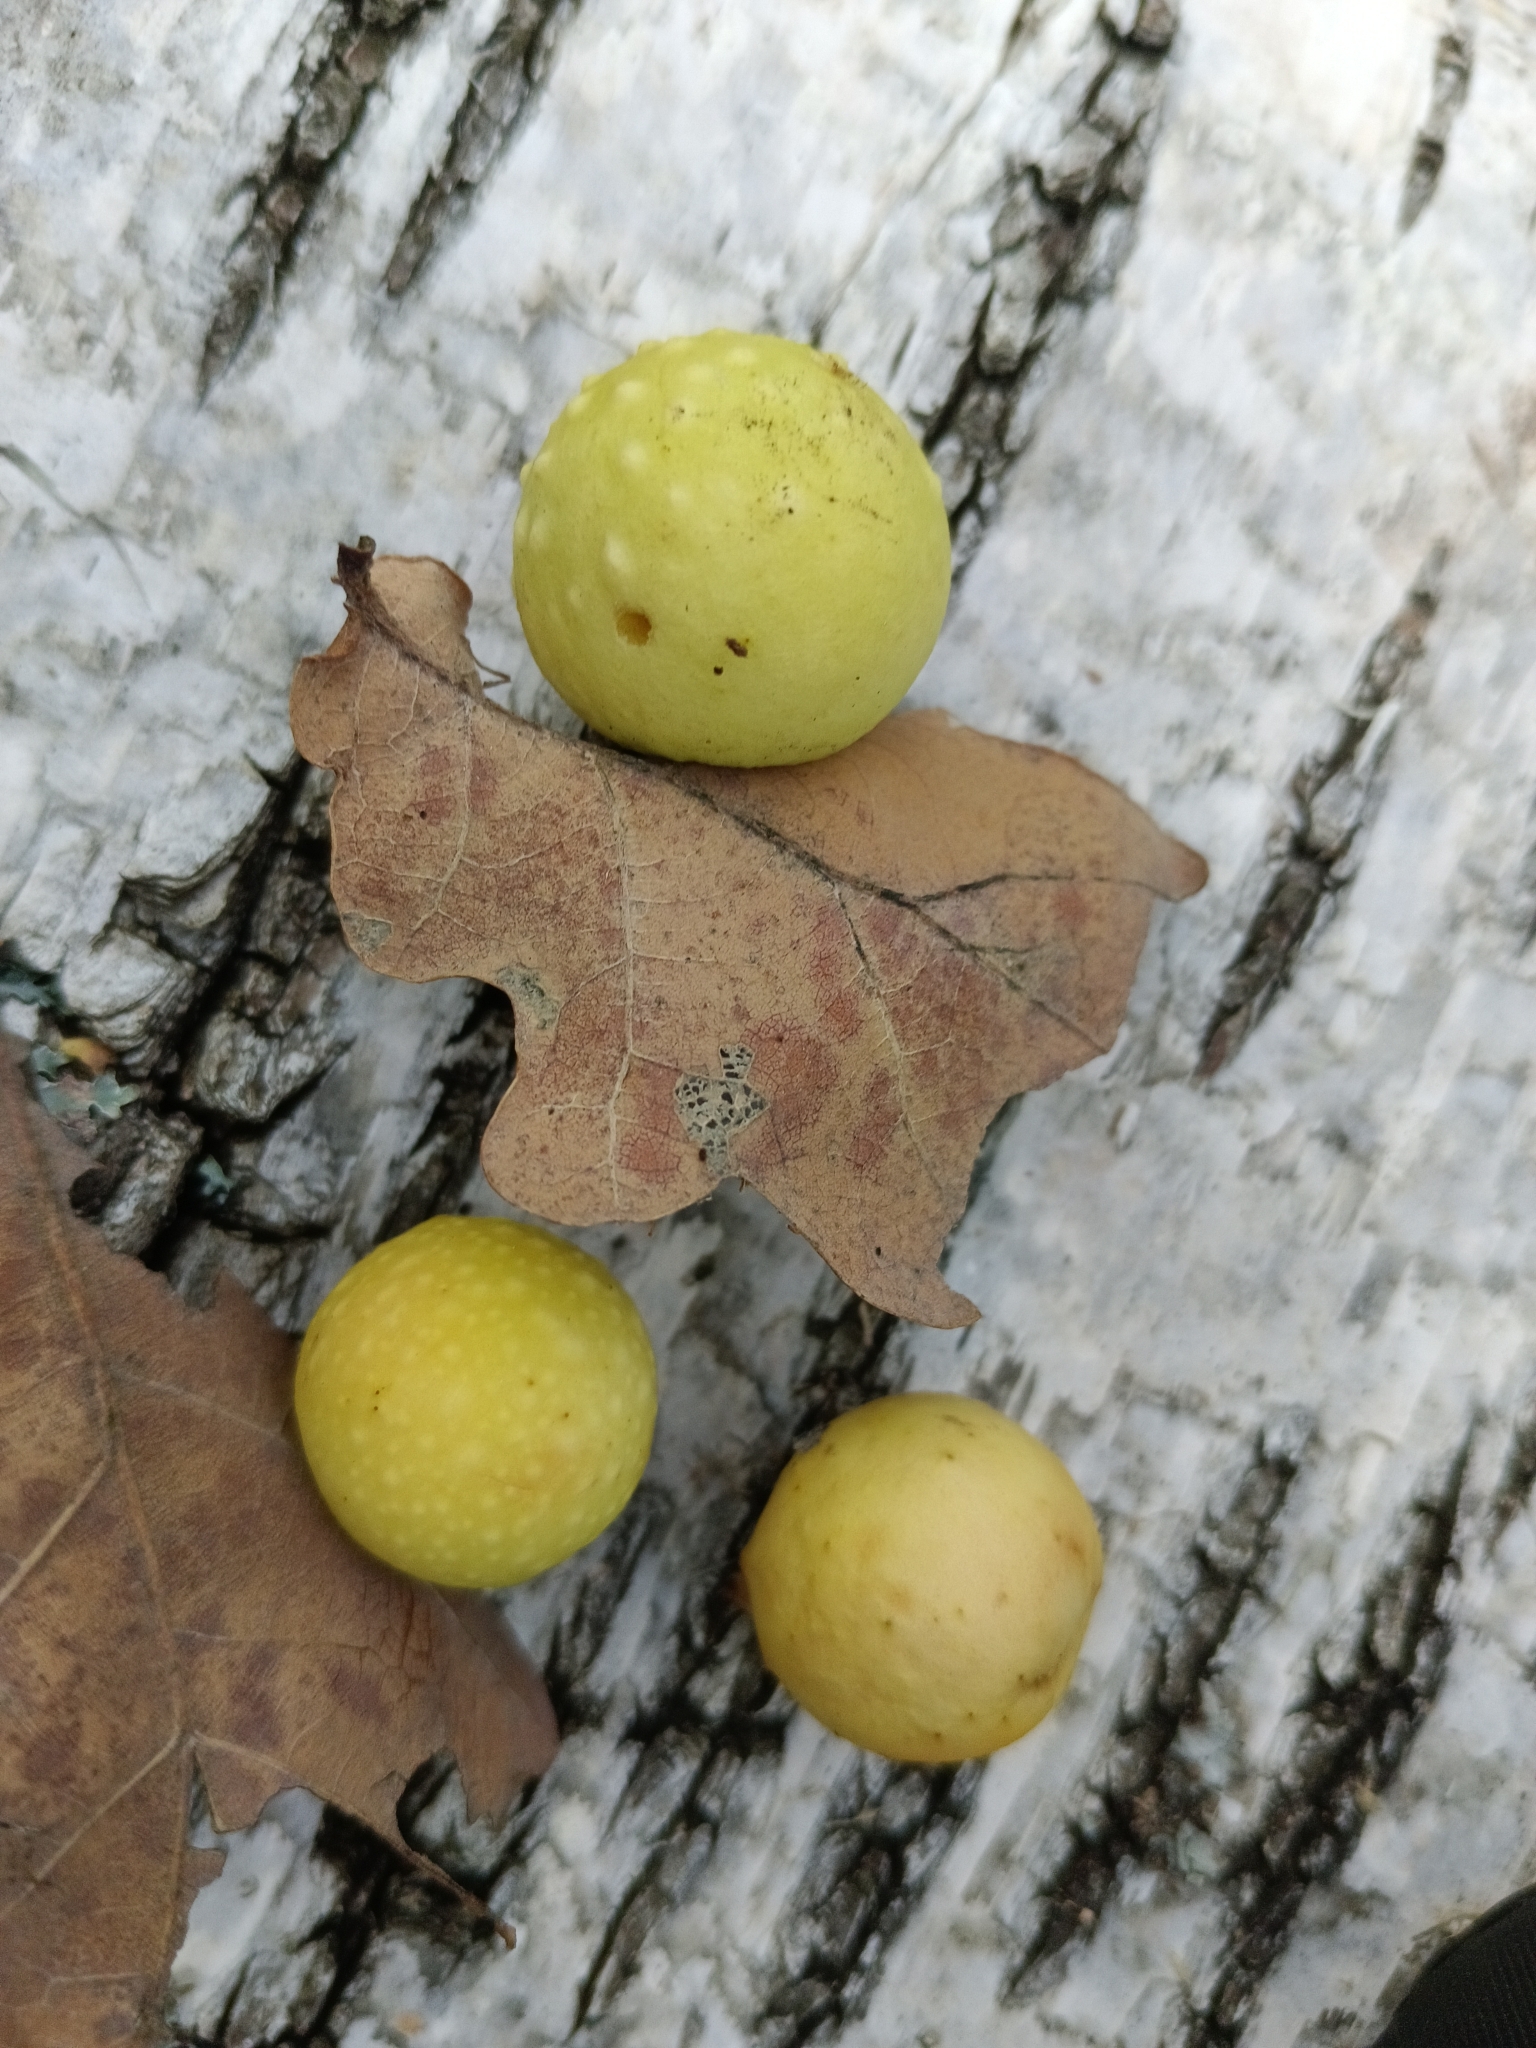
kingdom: Animalia
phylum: Arthropoda
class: Insecta
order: Hymenoptera
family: Cynipidae
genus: Cynips
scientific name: Cynips quercusfolii
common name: Cherry gall
